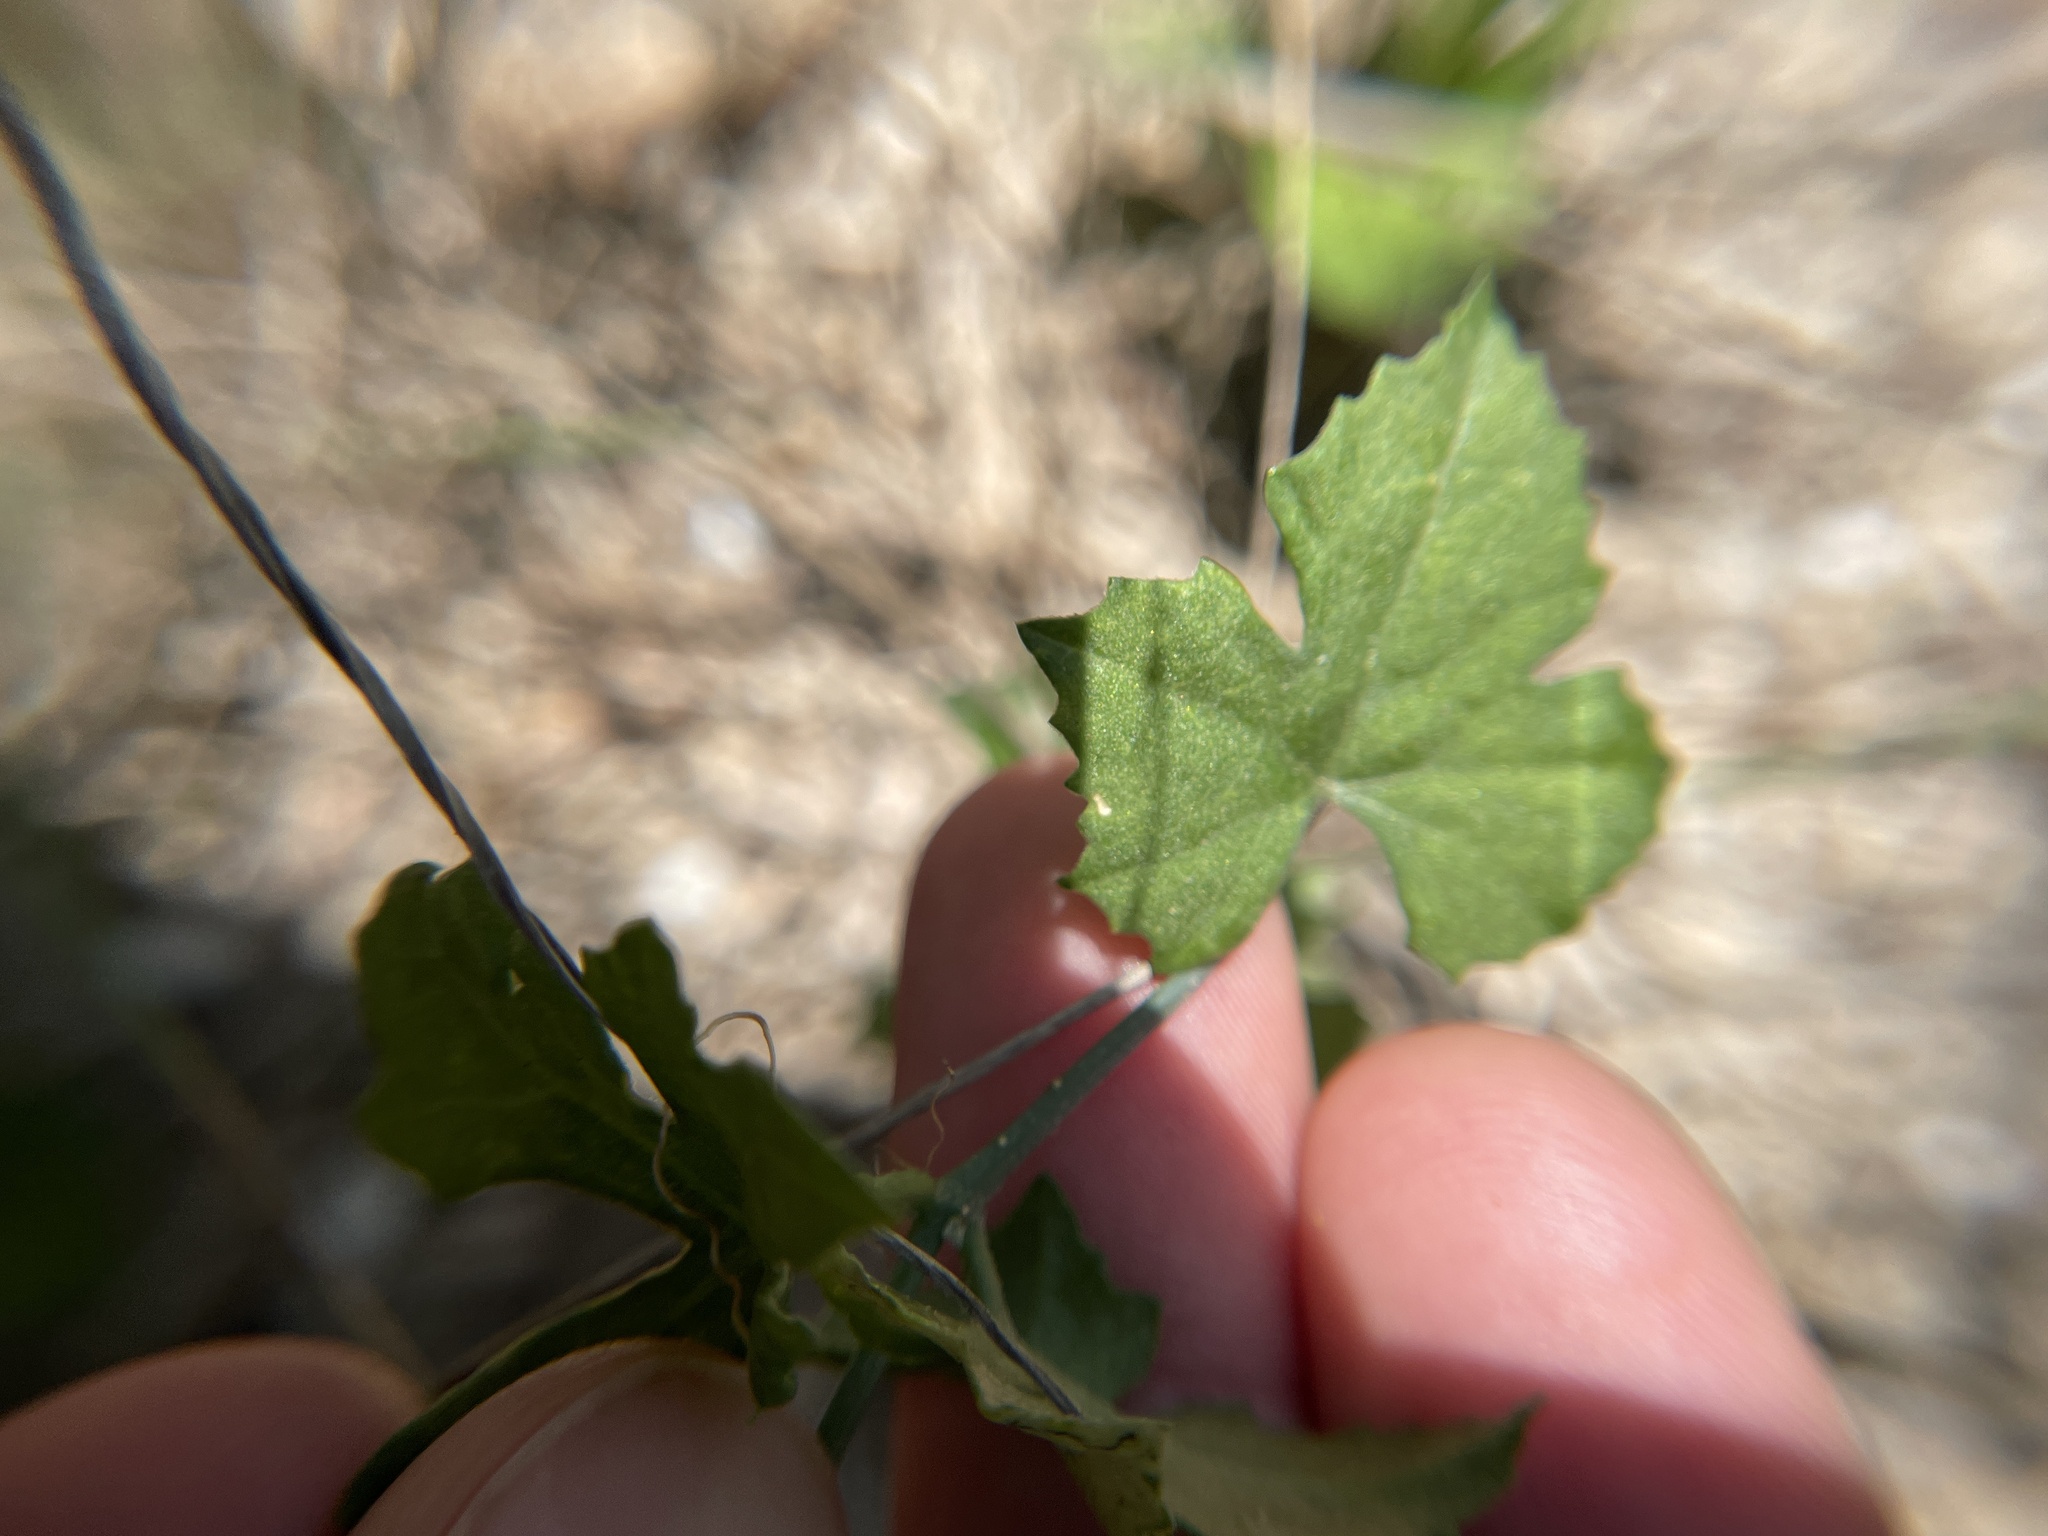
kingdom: Plantae
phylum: Tracheophyta
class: Magnoliopsida
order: Cucurbitales
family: Cucurbitaceae
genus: Ibervillea
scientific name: Ibervillea lindheimeri
